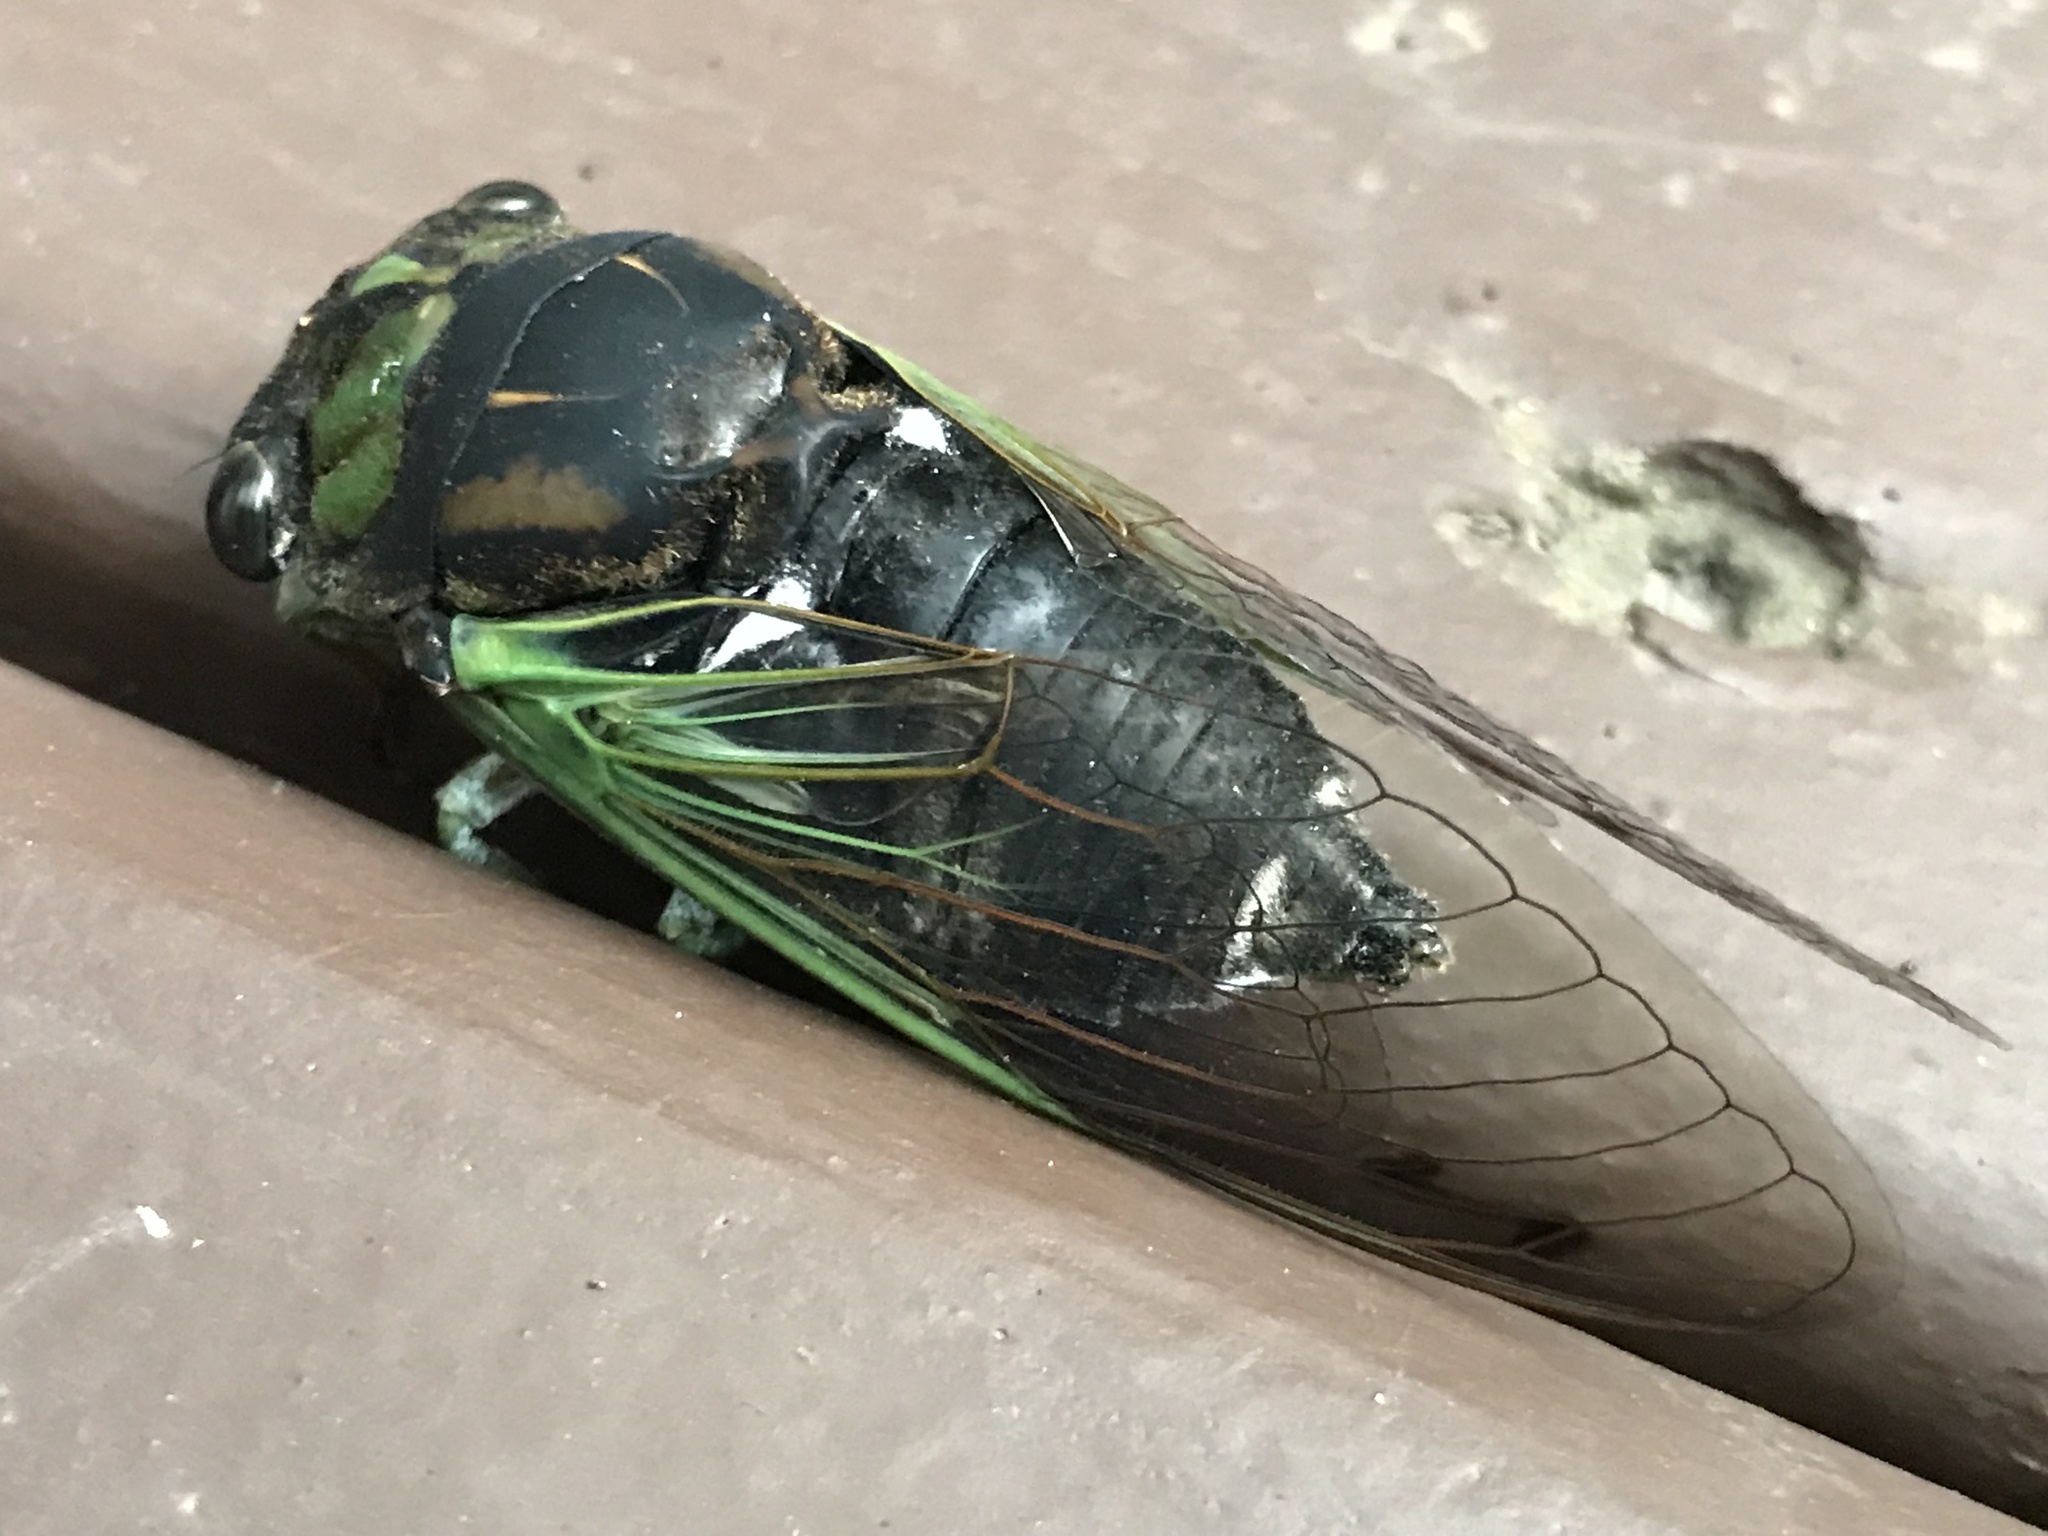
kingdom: Animalia
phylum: Arthropoda
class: Insecta
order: Hemiptera
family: Cicadidae
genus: Neotibicen
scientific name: Neotibicen tibicen
